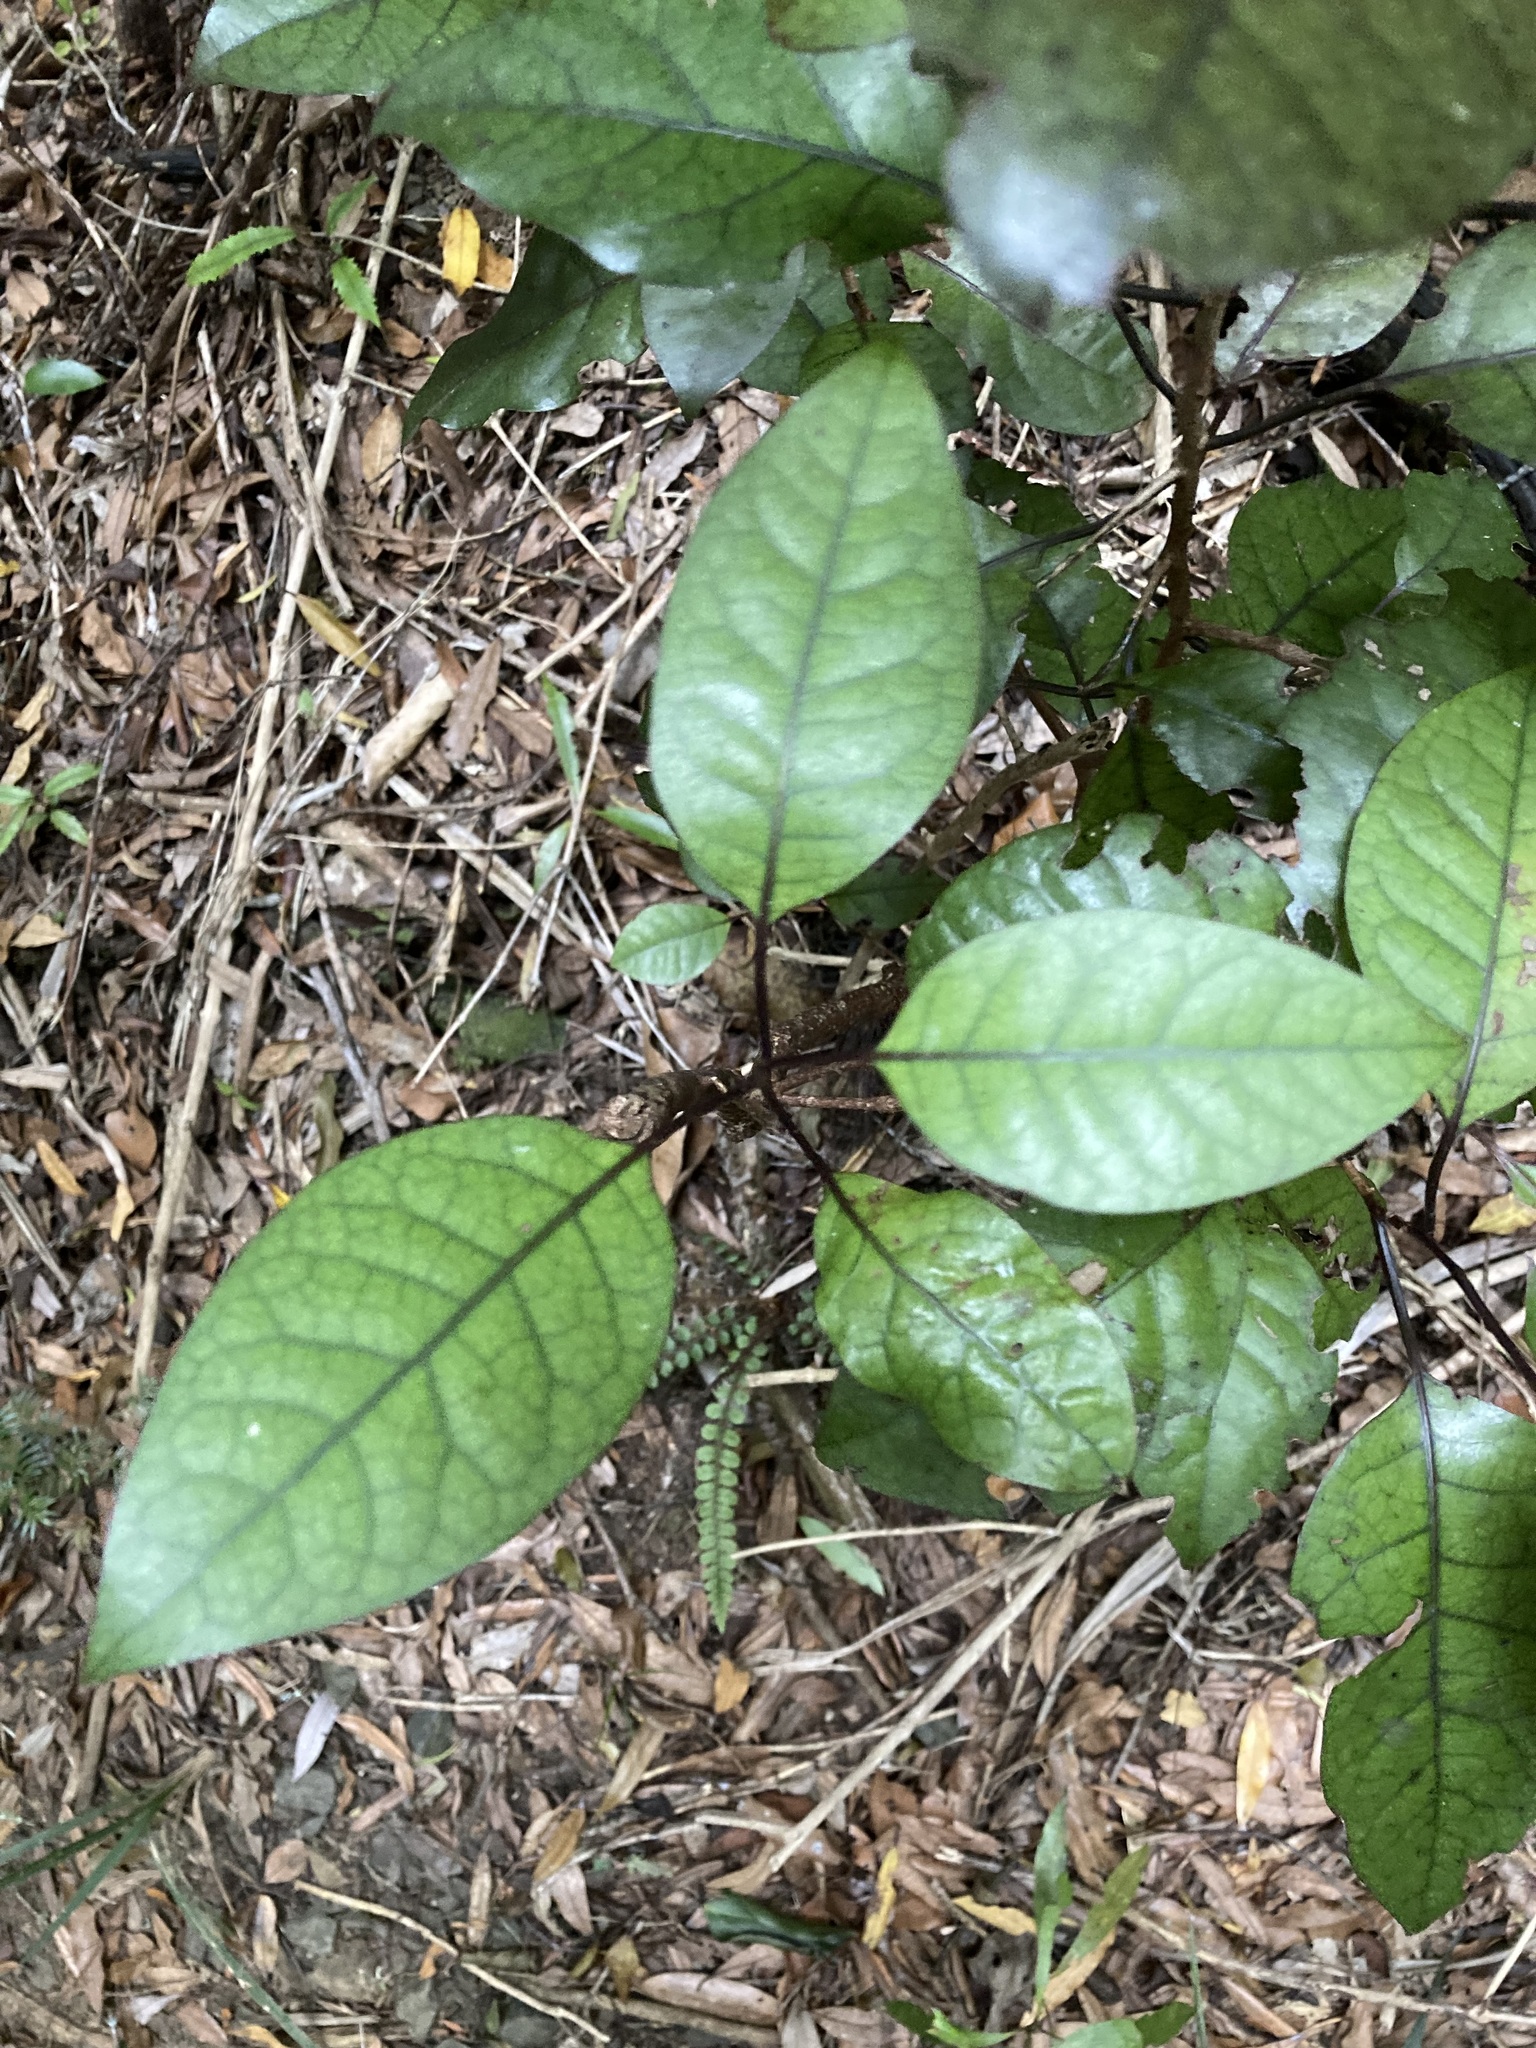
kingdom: Plantae
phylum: Tracheophyta
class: Magnoliopsida
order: Laurales
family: Lauraceae
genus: Litsea
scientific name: Litsea calicaris
